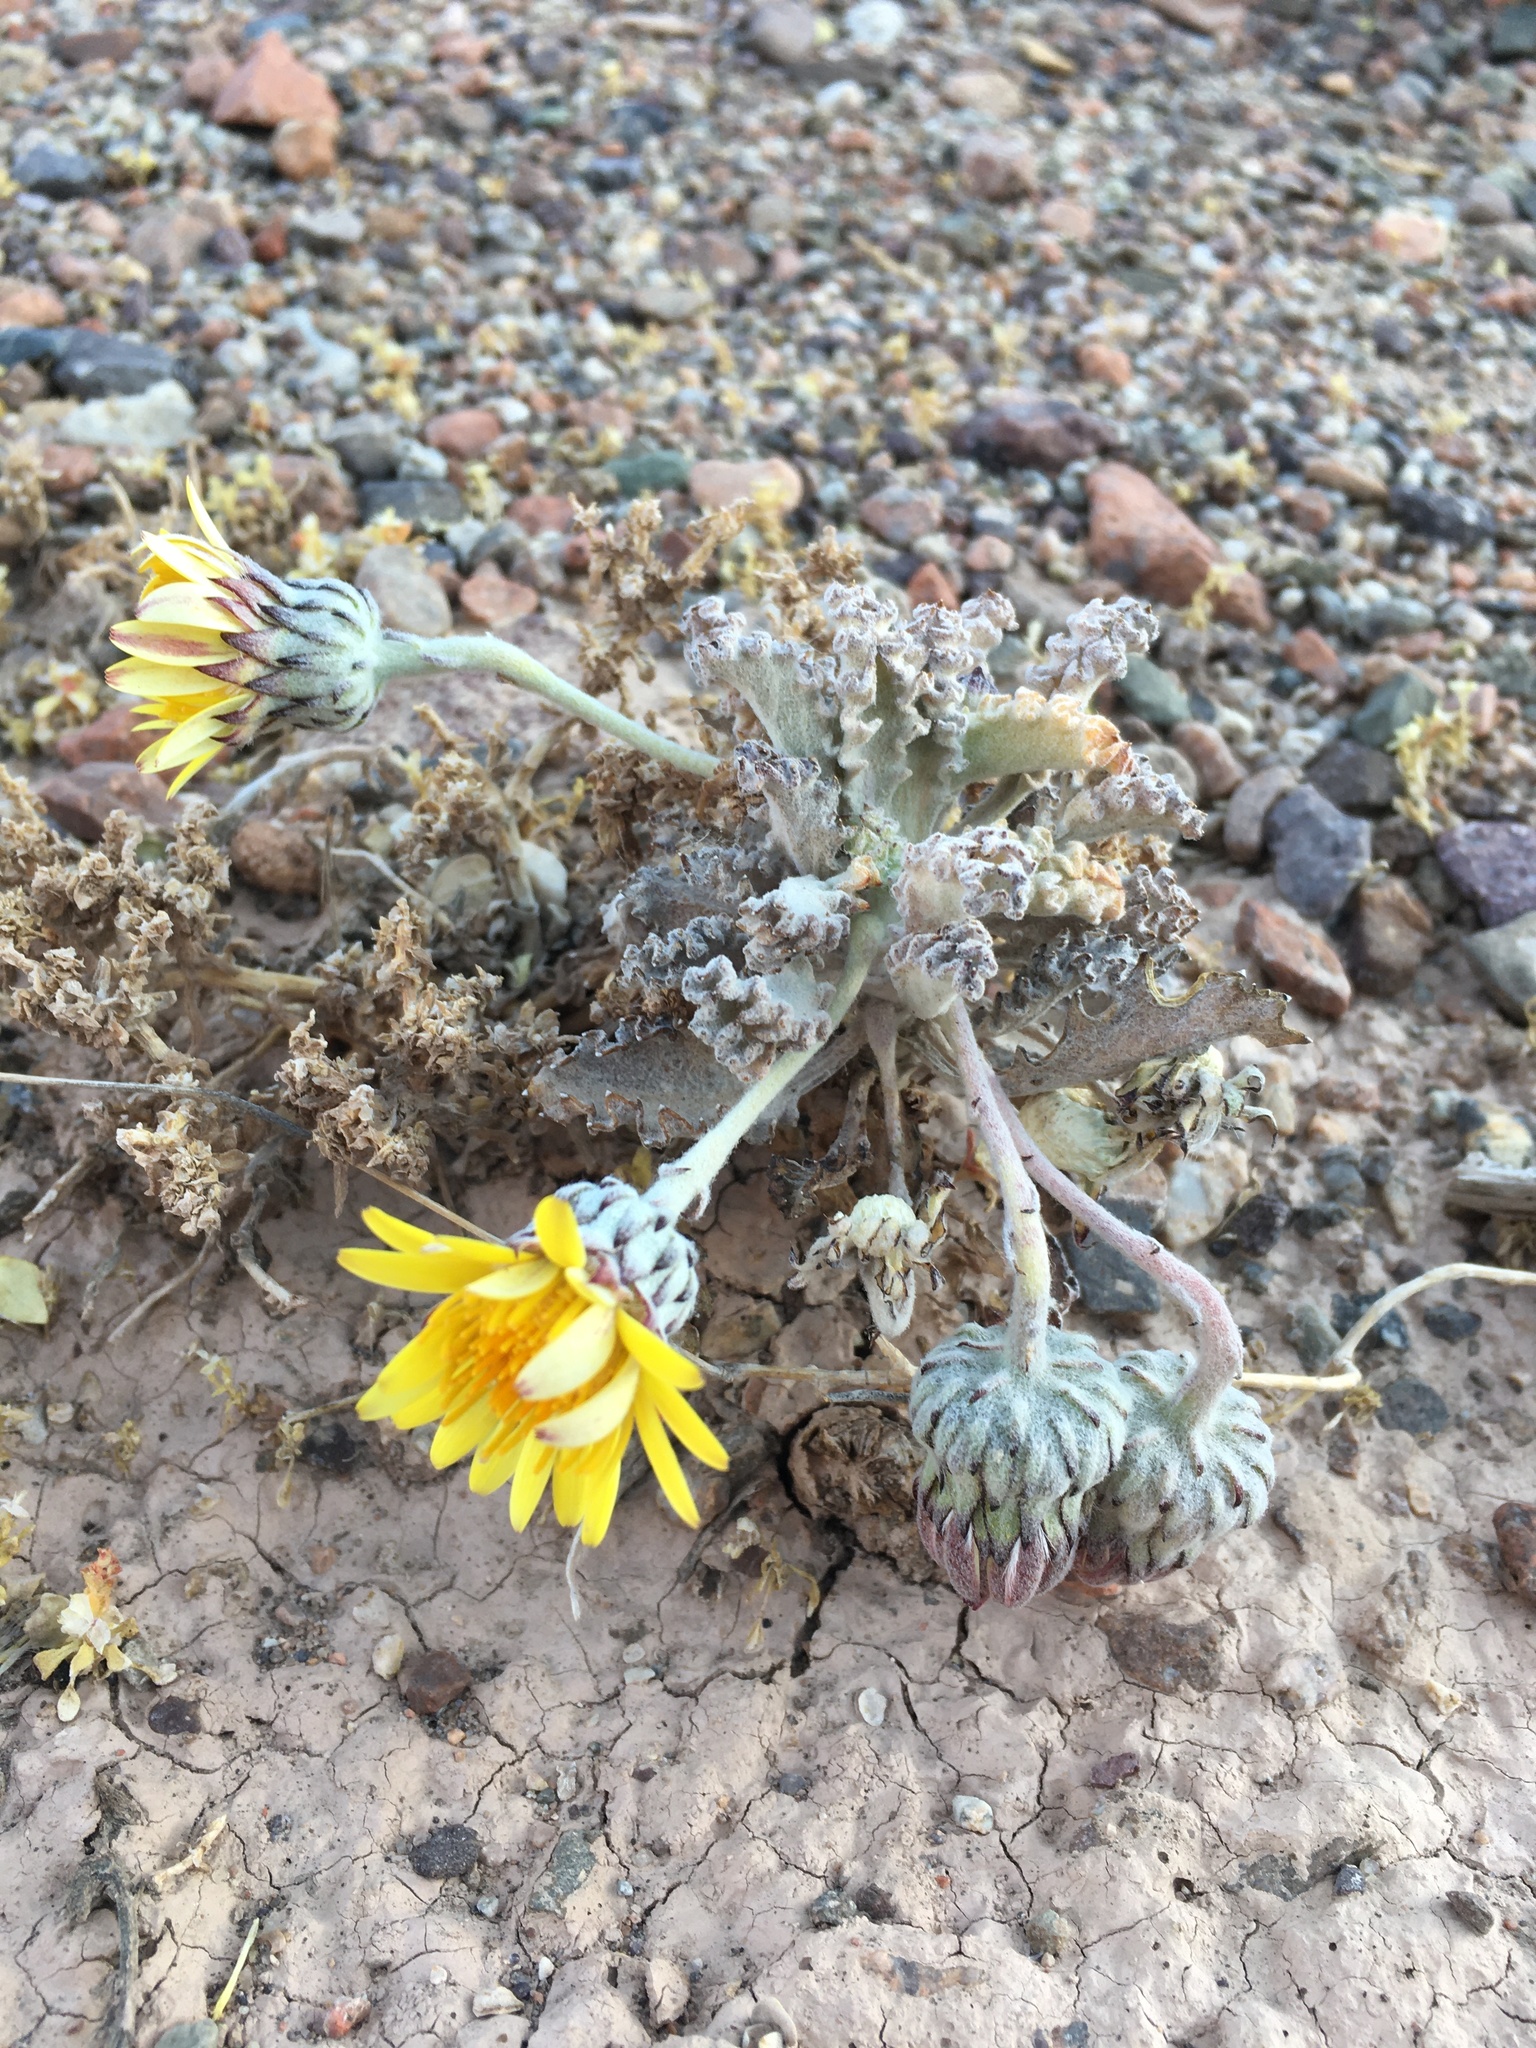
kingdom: Plantae
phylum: Tracheophyta
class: Magnoliopsida
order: Asterales
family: Asteraceae
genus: Trichocline
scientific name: Trichocline caulescens
